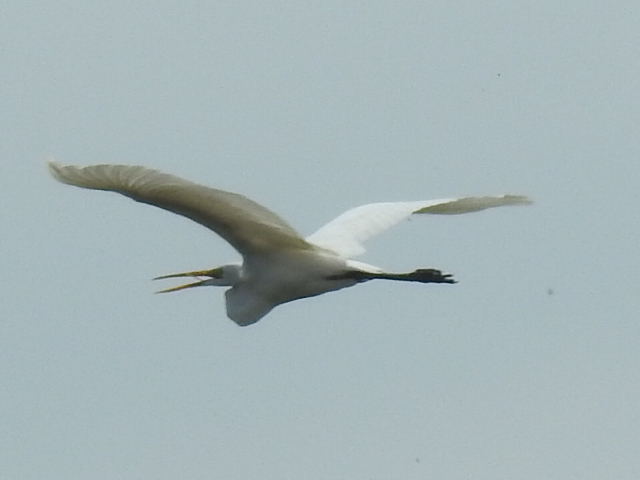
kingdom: Animalia
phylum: Chordata
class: Aves
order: Pelecaniformes
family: Ardeidae
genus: Ardea
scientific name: Ardea alba
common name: Great egret
